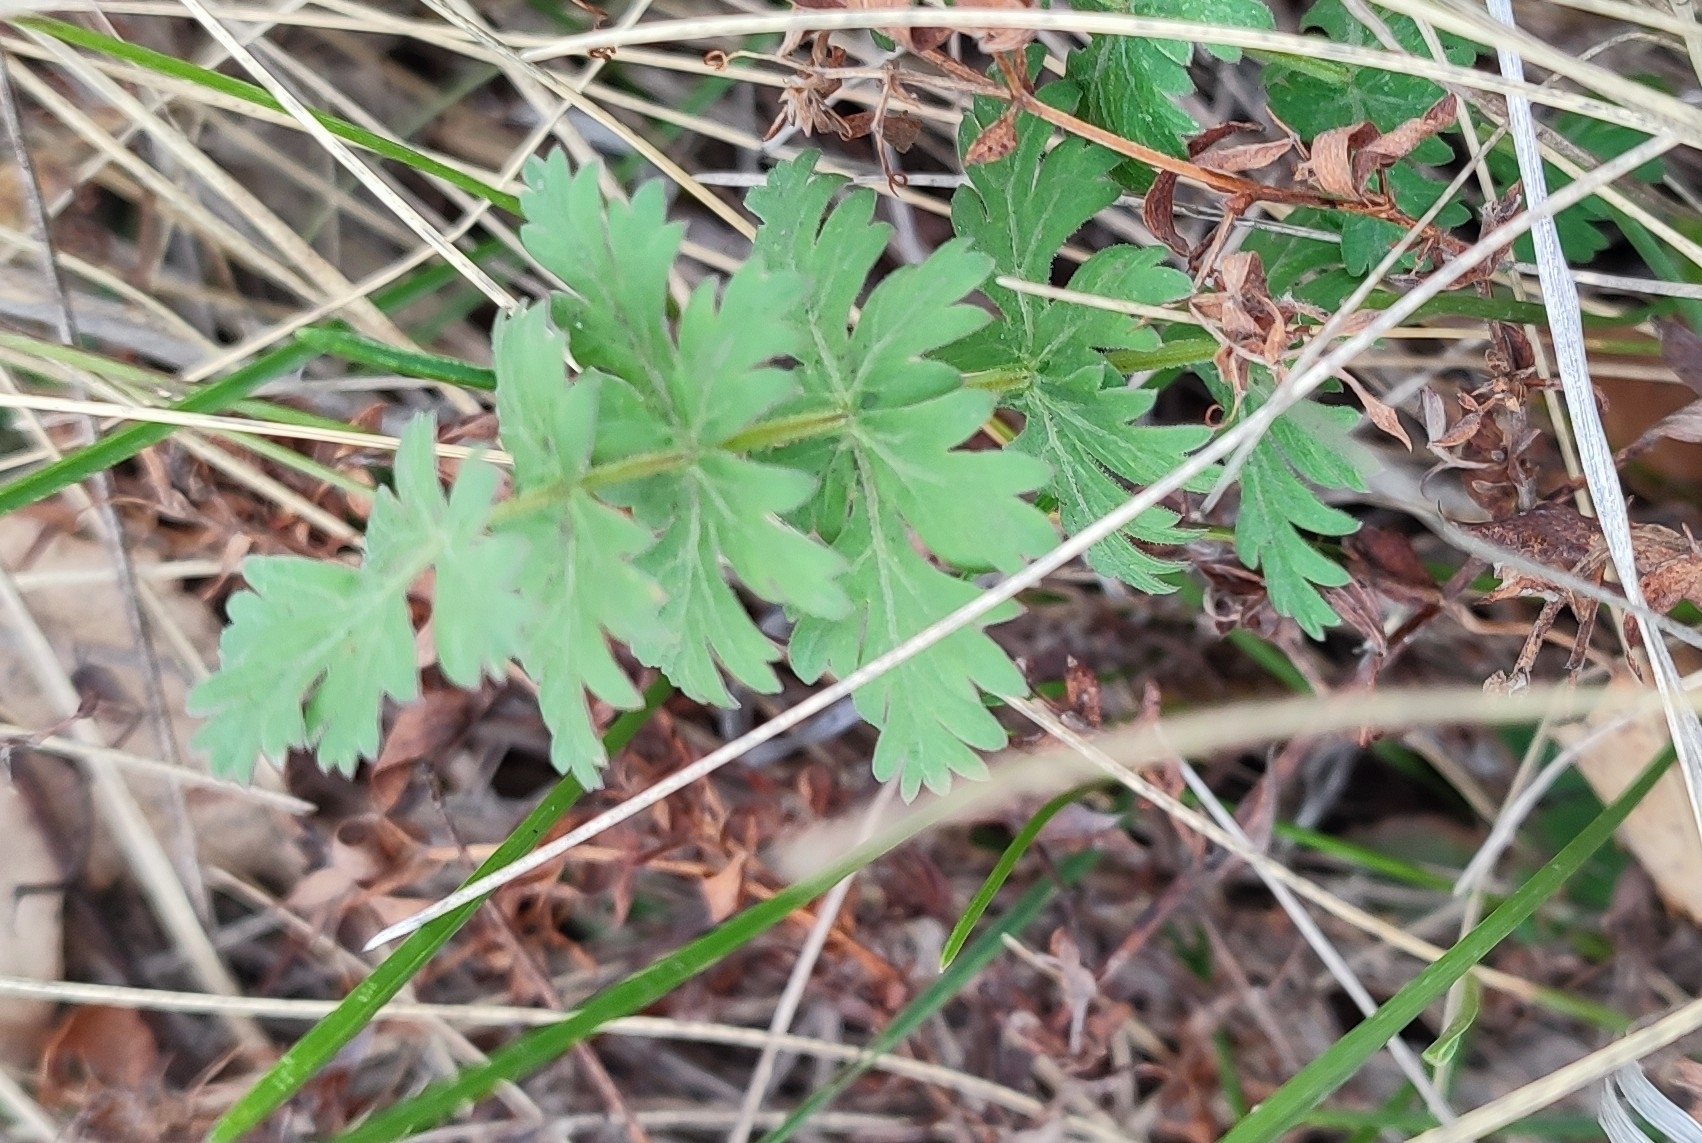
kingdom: Plantae
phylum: Tracheophyta
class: Magnoliopsida
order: Apiales
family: Apiaceae
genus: Seseli
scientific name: Seseli libanotis
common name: Mooncarrot
